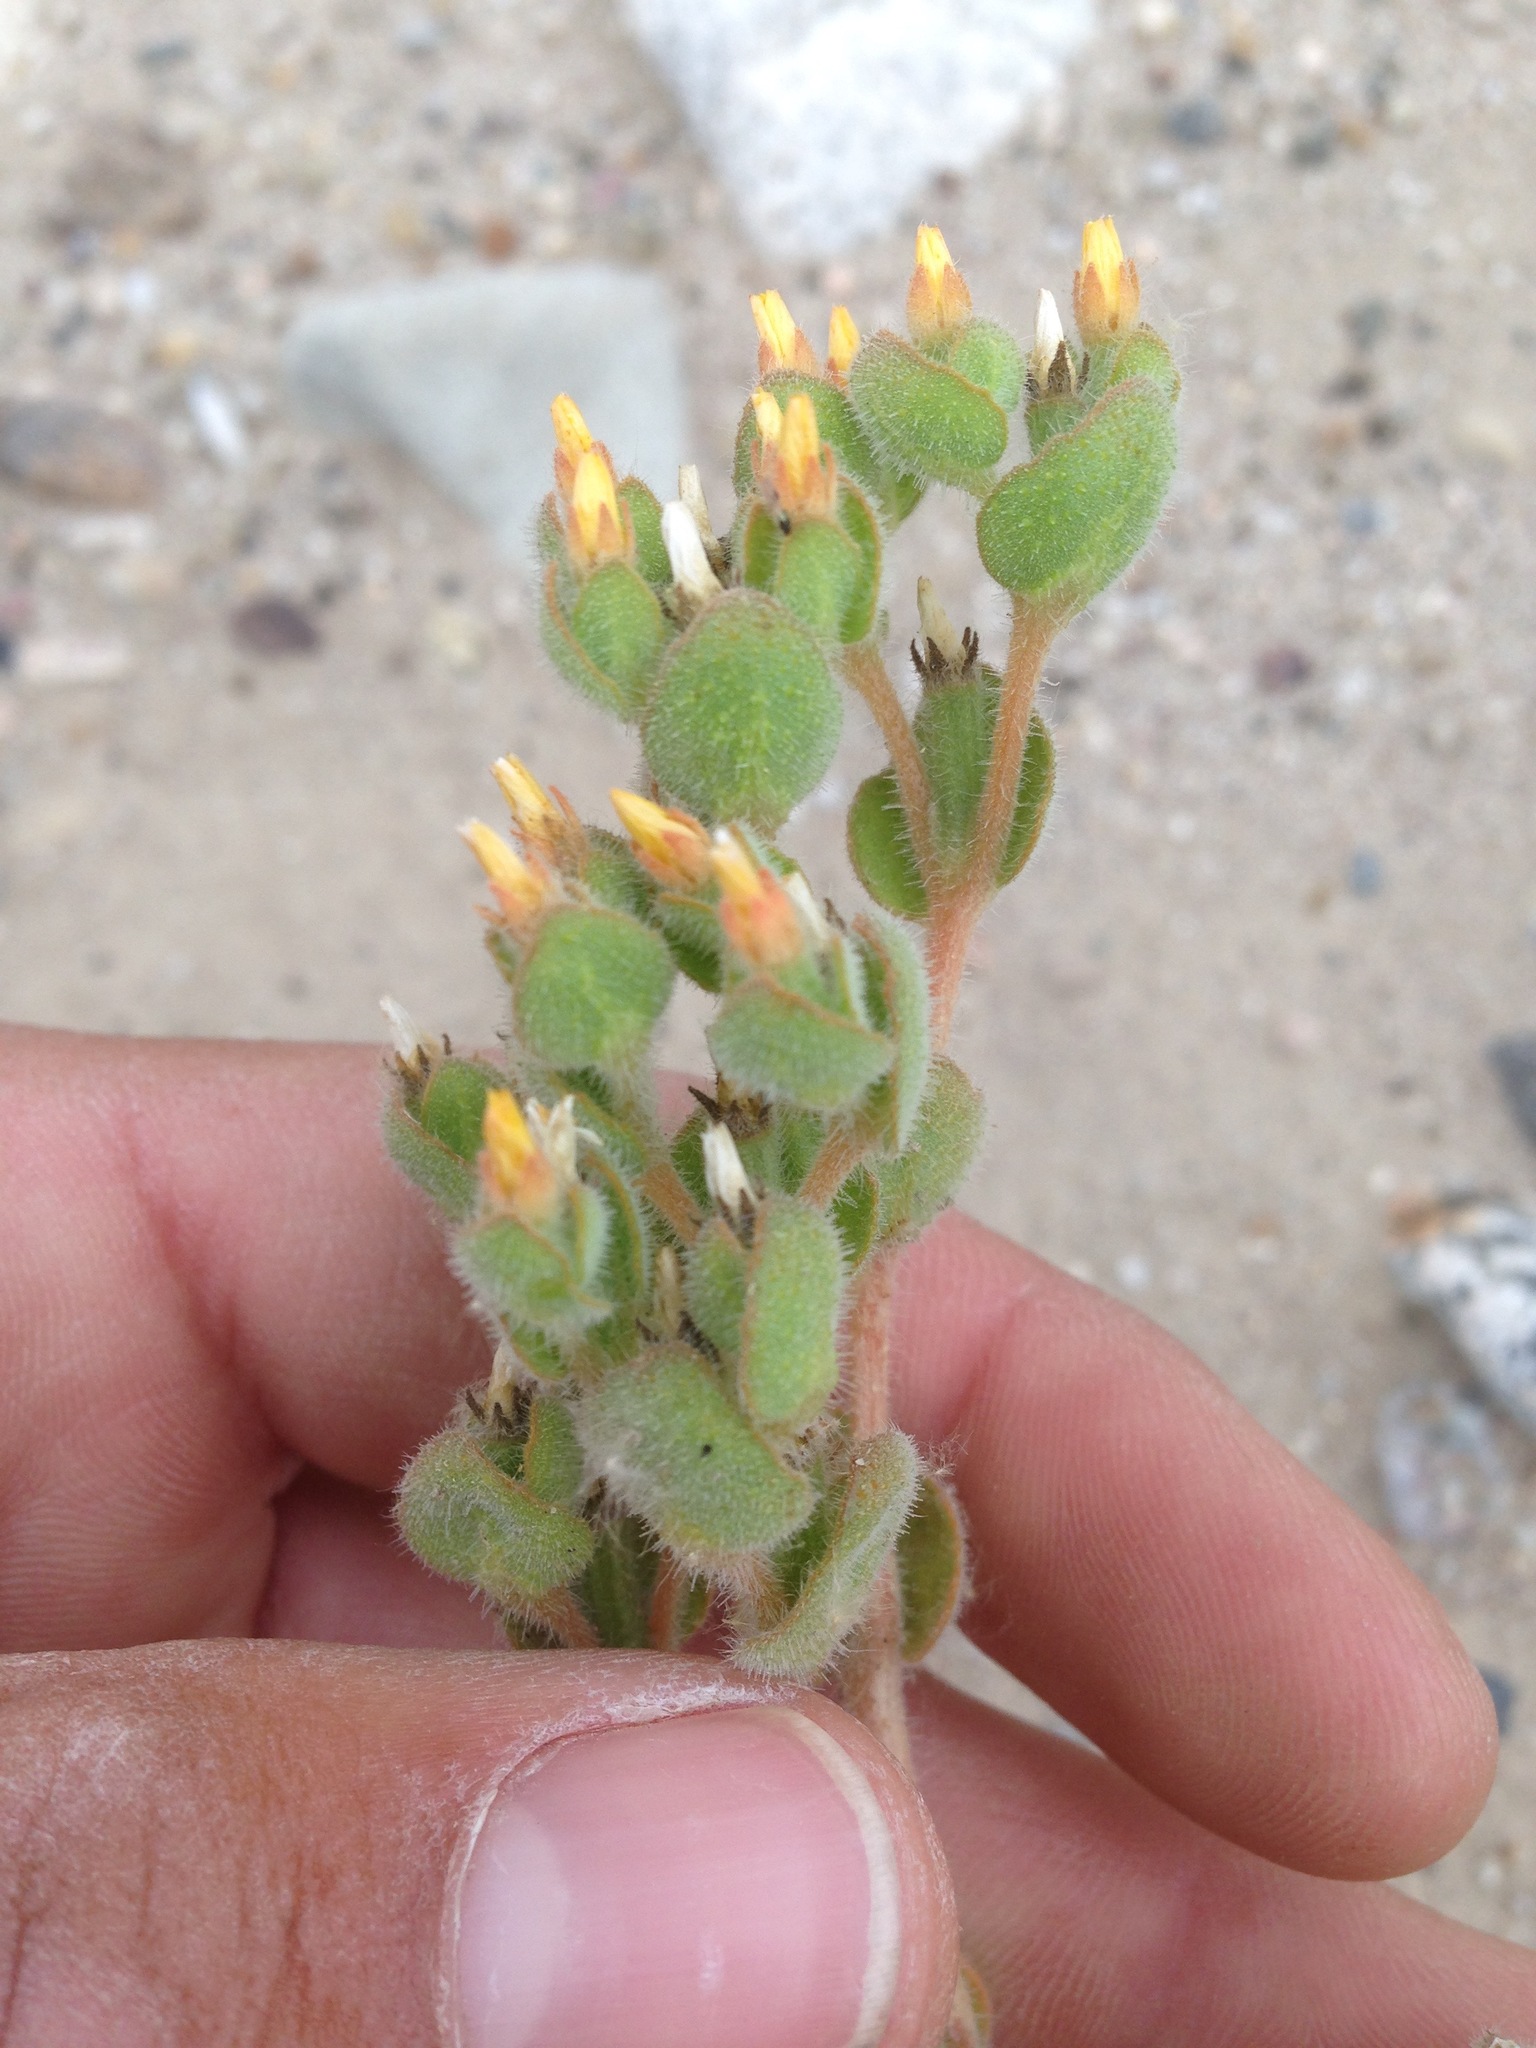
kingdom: Plantae
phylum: Tracheophyta
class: Magnoliopsida
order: Cornales
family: Loasaceae
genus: Mentzelia
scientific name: Mentzelia micrantha
